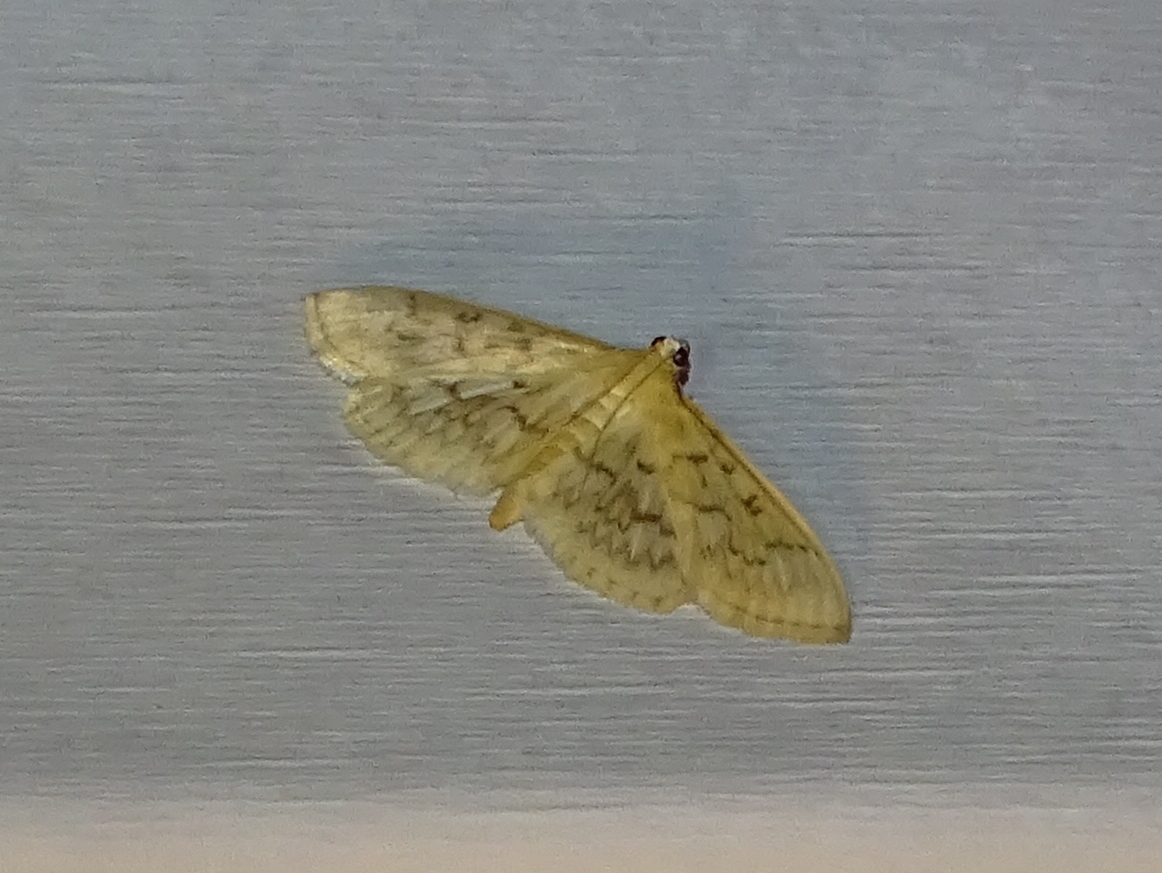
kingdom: Animalia
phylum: Arthropoda
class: Insecta
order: Lepidoptera
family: Crambidae
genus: Herpetogramma
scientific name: Herpetogramma pertextalis
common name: Bold-feathered grass moth
